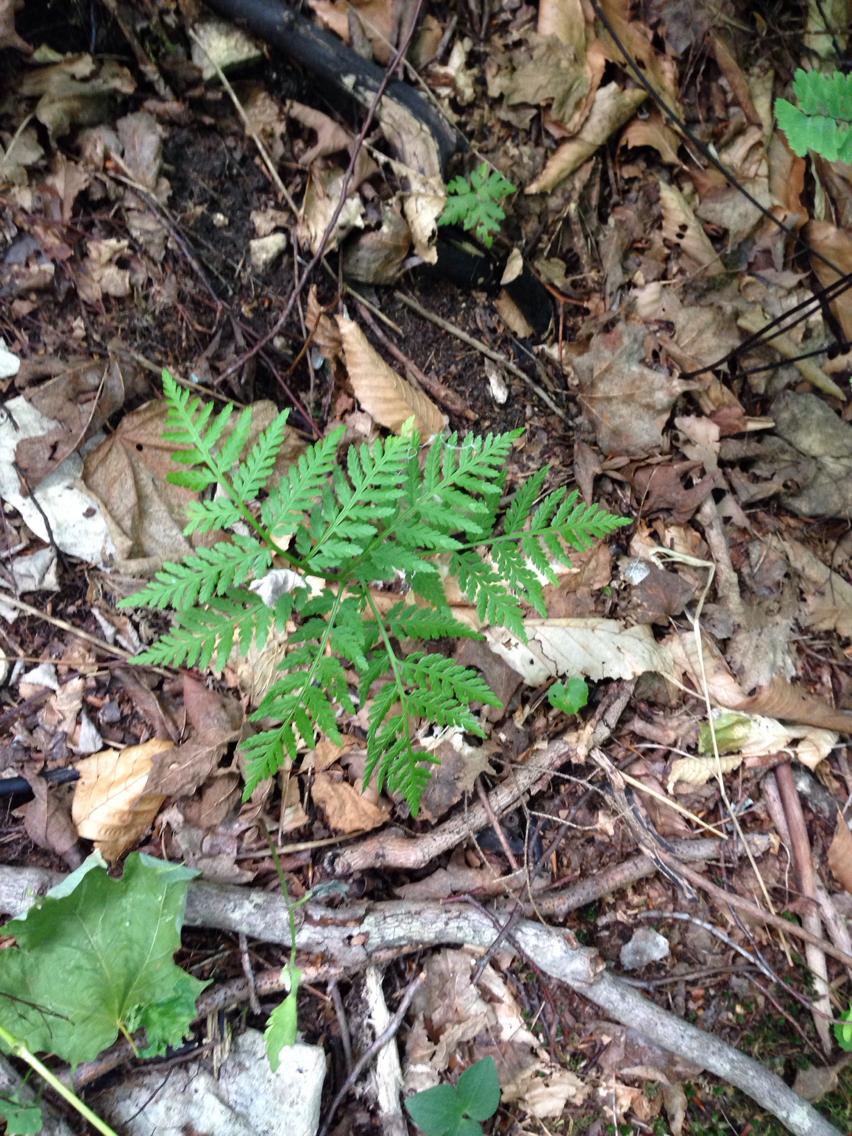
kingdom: Plantae
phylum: Tracheophyta
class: Polypodiopsida
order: Ophioglossales
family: Ophioglossaceae
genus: Botrypus
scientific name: Botrypus virginianus
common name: Common grapefern
